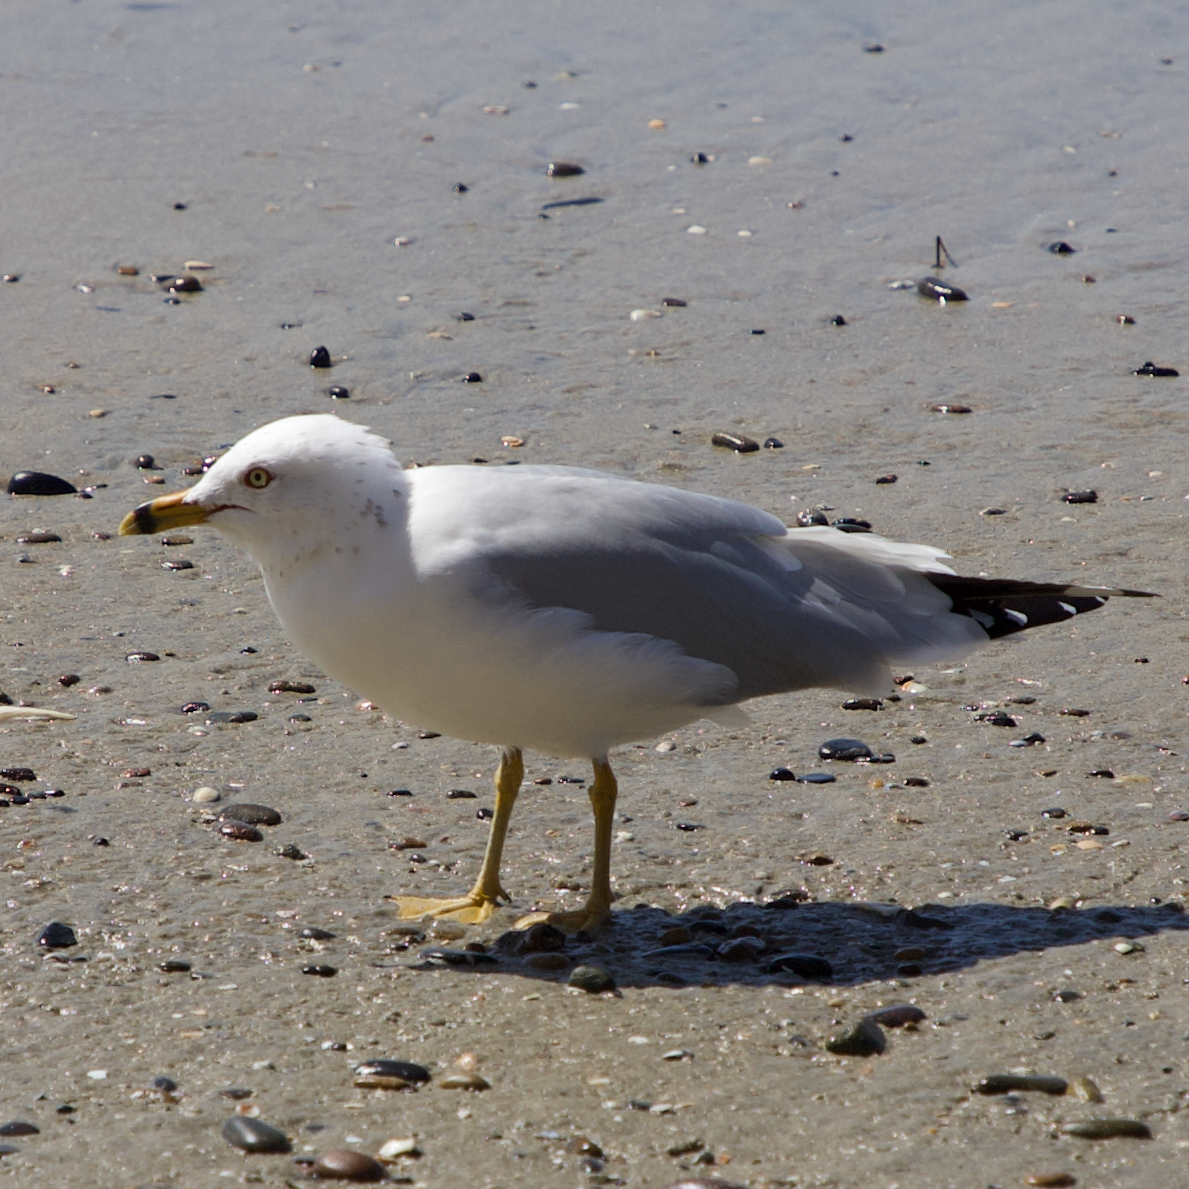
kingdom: Animalia
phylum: Chordata
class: Aves
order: Charadriiformes
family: Laridae
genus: Larus
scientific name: Larus delawarensis
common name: Ring-billed gull
